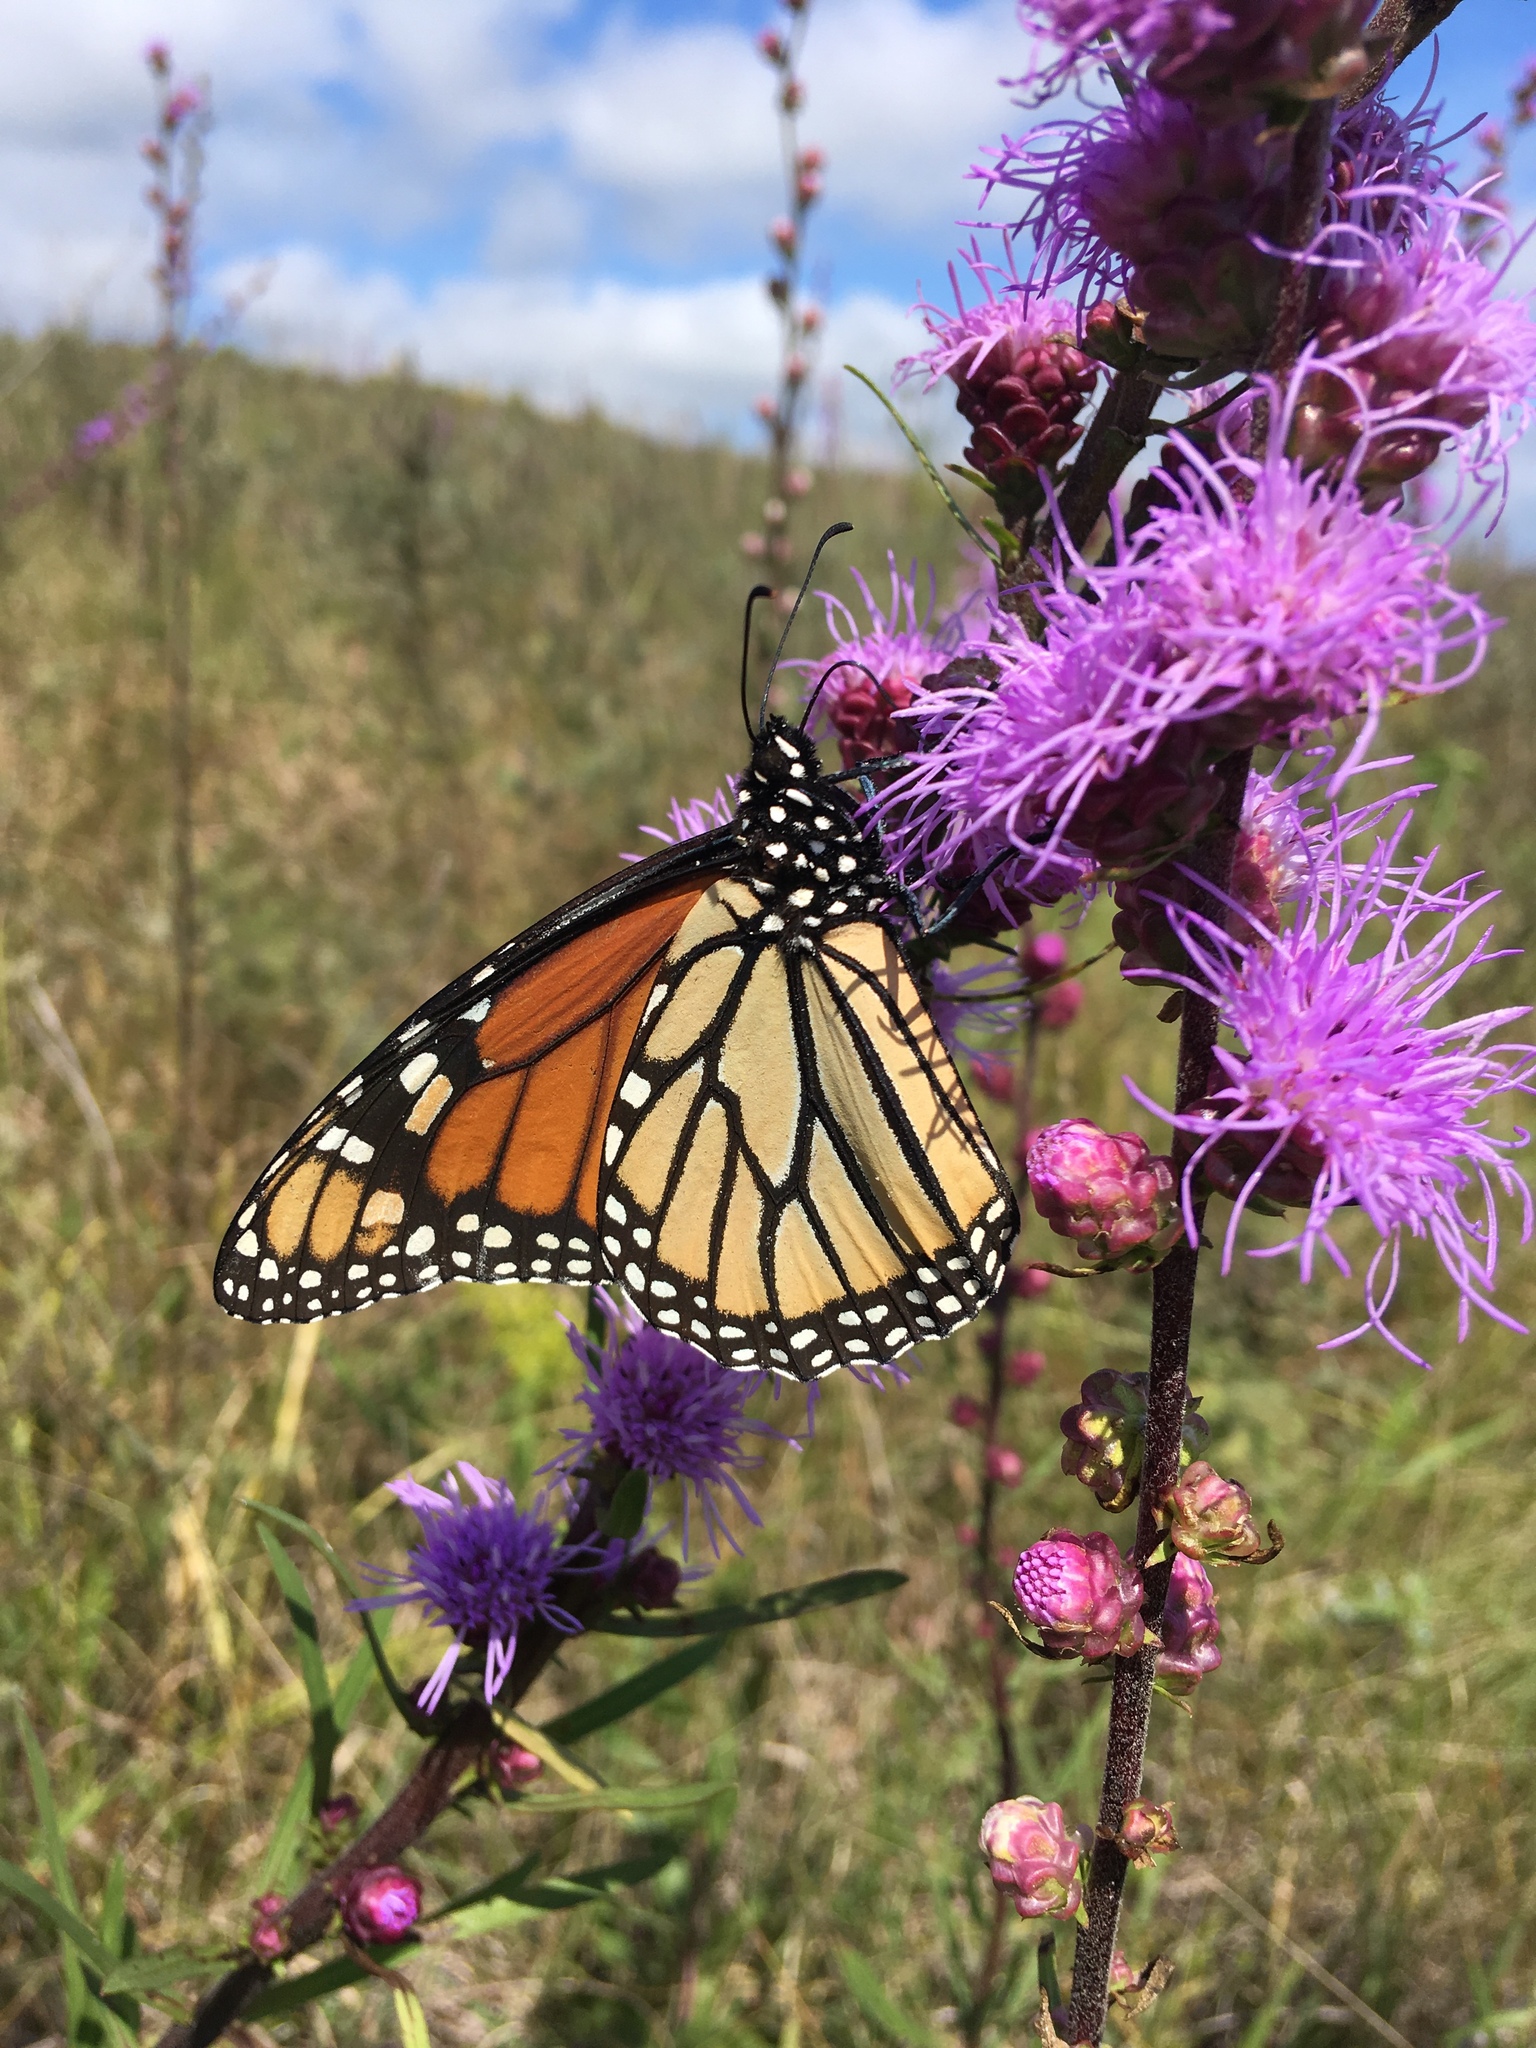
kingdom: Animalia
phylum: Arthropoda
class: Insecta
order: Lepidoptera
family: Nymphalidae
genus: Danaus
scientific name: Danaus plexippus
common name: Monarch
